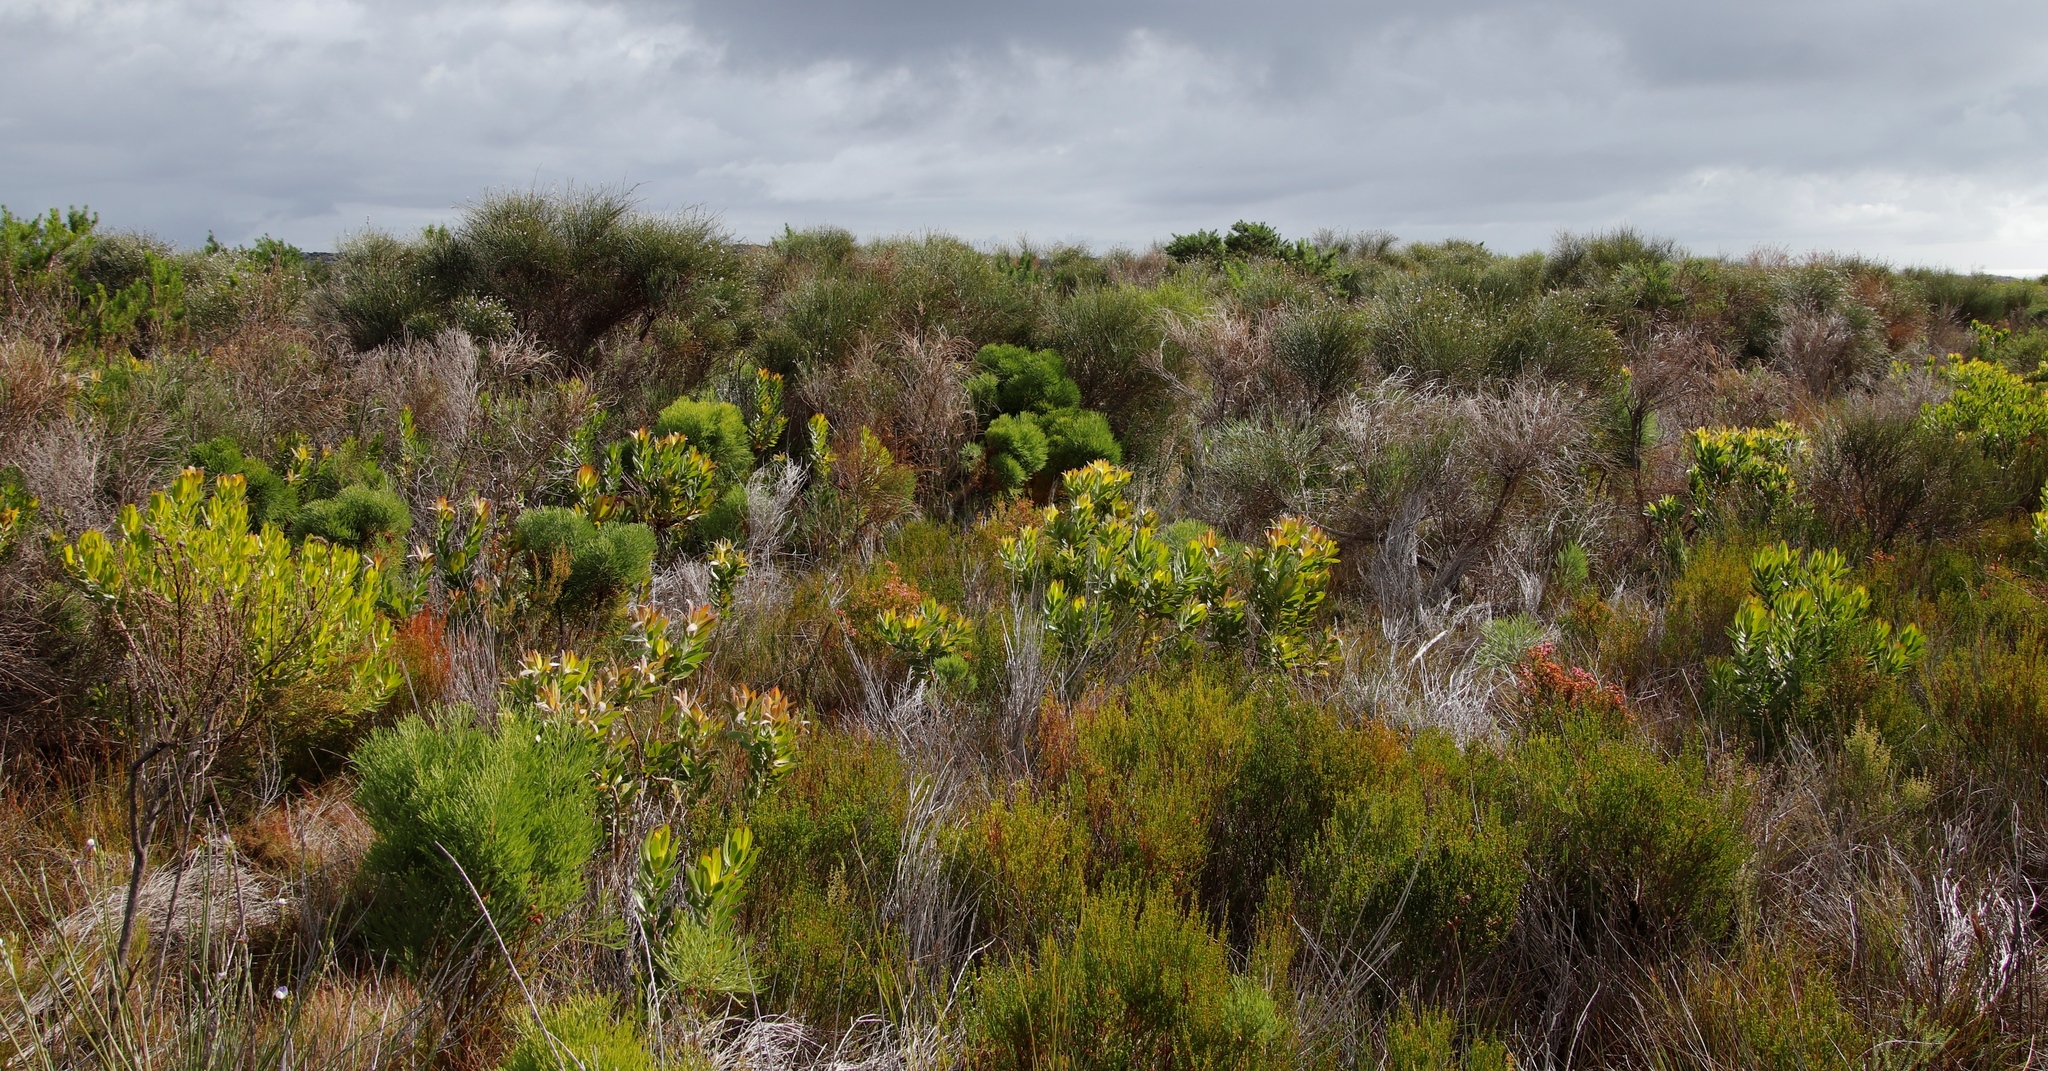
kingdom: Plantae
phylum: Tracheophyta
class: Magnoliopsida
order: Proteales
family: Proteaceae
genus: Leucadendron
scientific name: Leucadendron laureolum
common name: Golden sunshinebush
